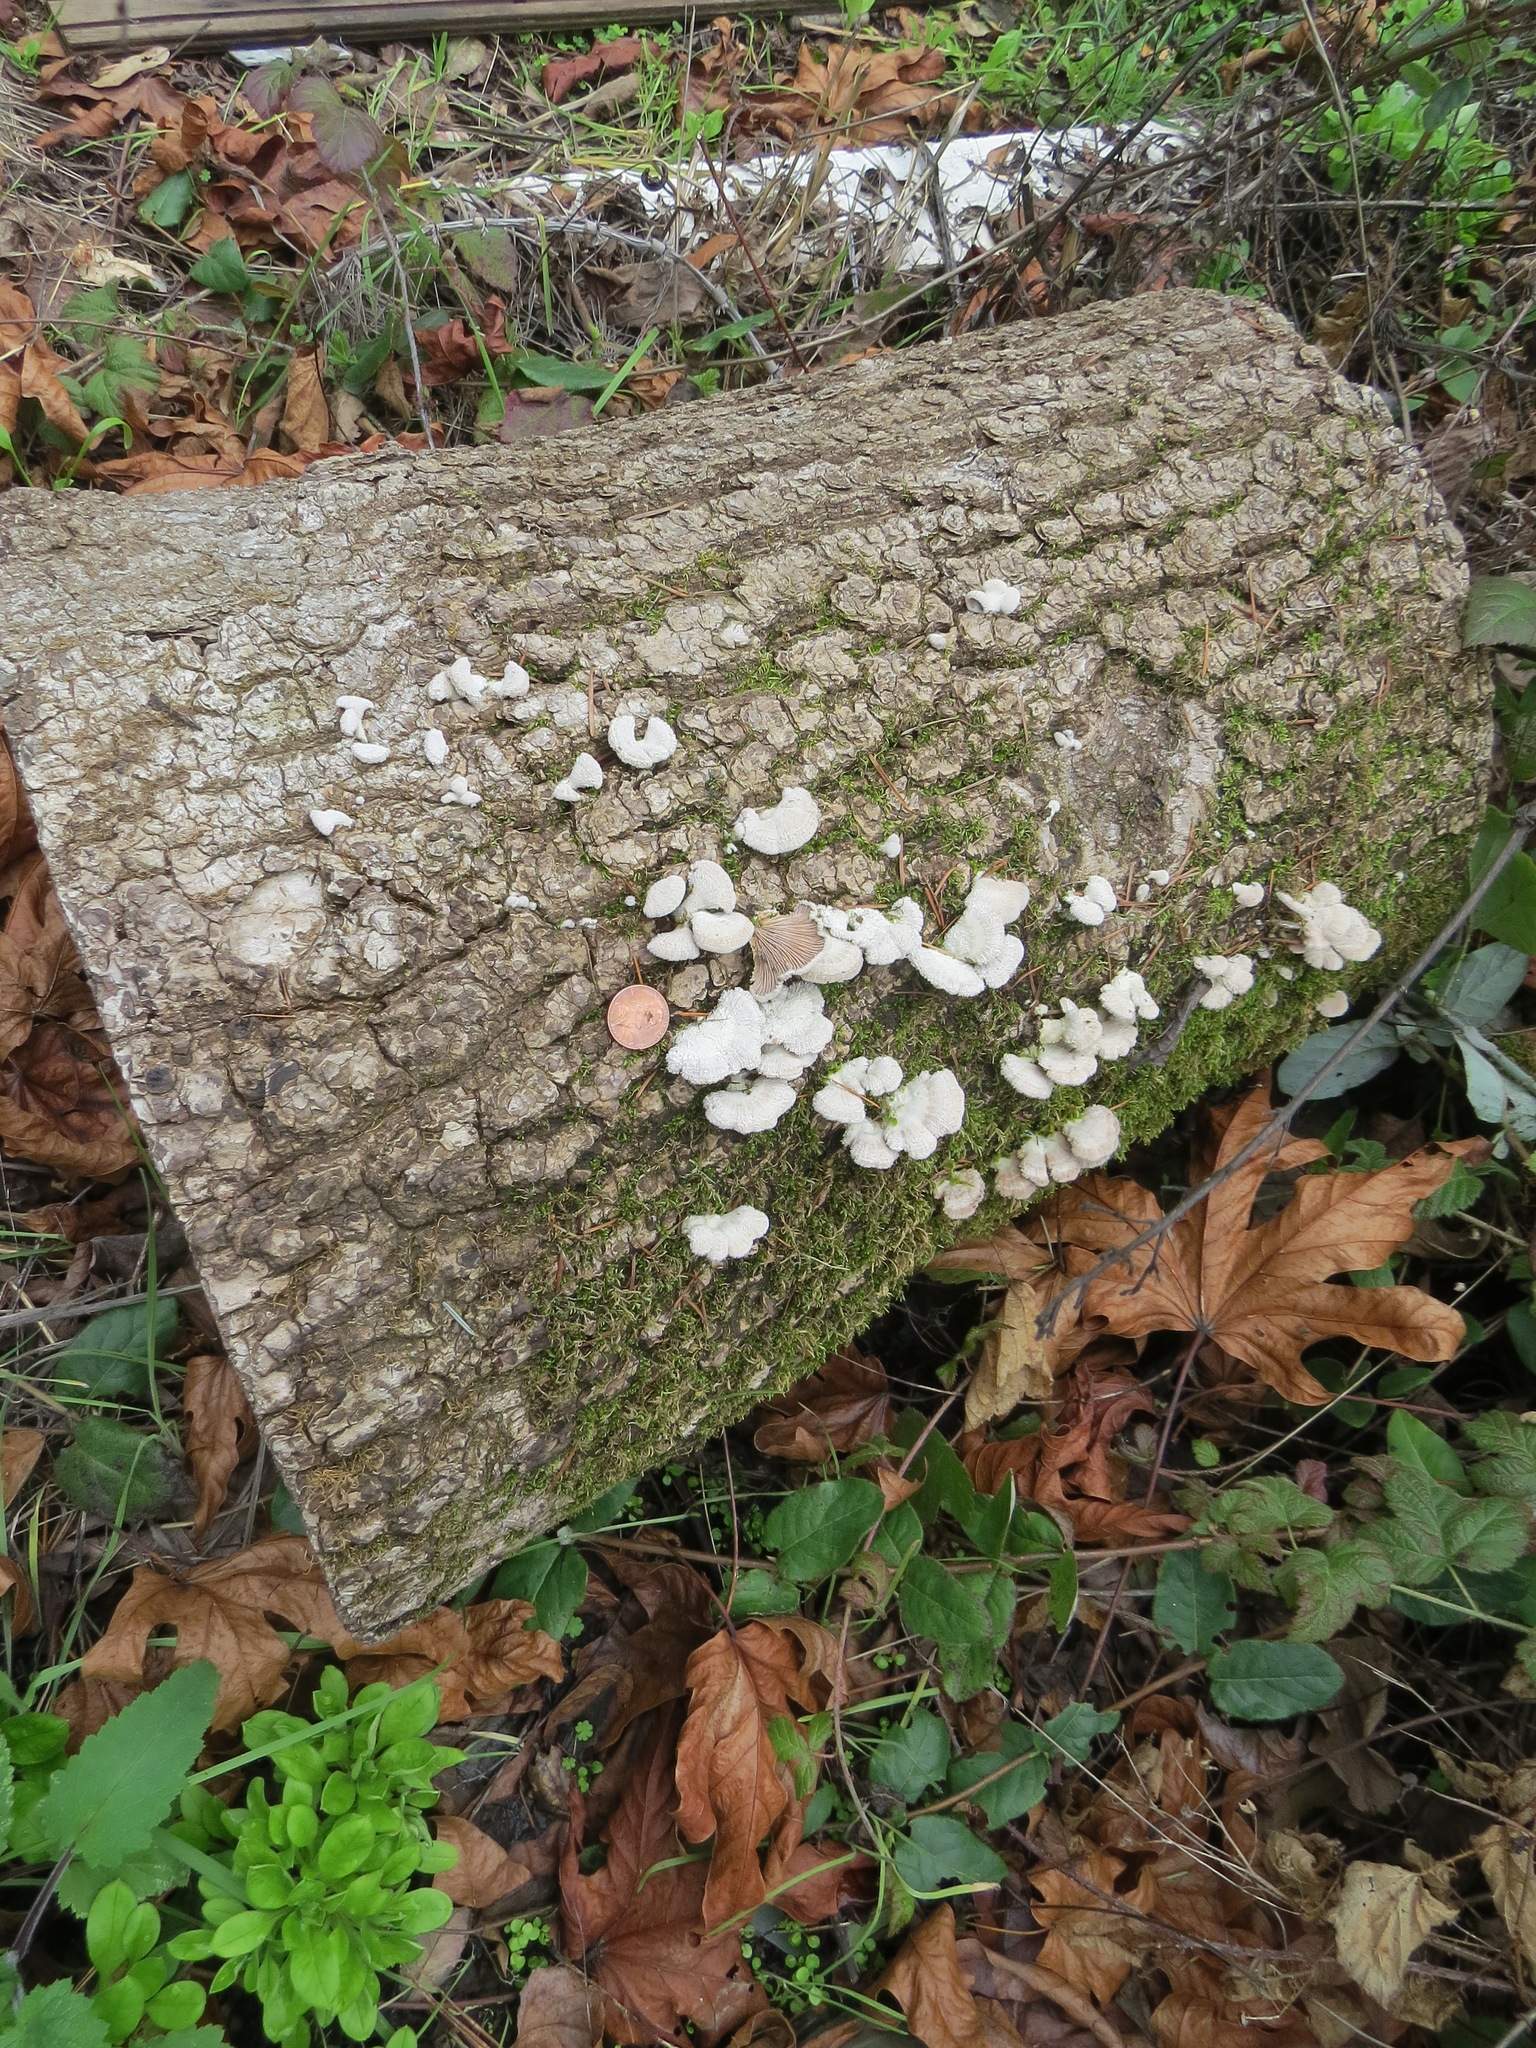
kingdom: Fungi
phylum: Basidiomycota
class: Agaricomycetes
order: Agaricales
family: Schizophyllaceae
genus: Schizophyllum
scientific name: Schizophyllum commune
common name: Common porecrust
